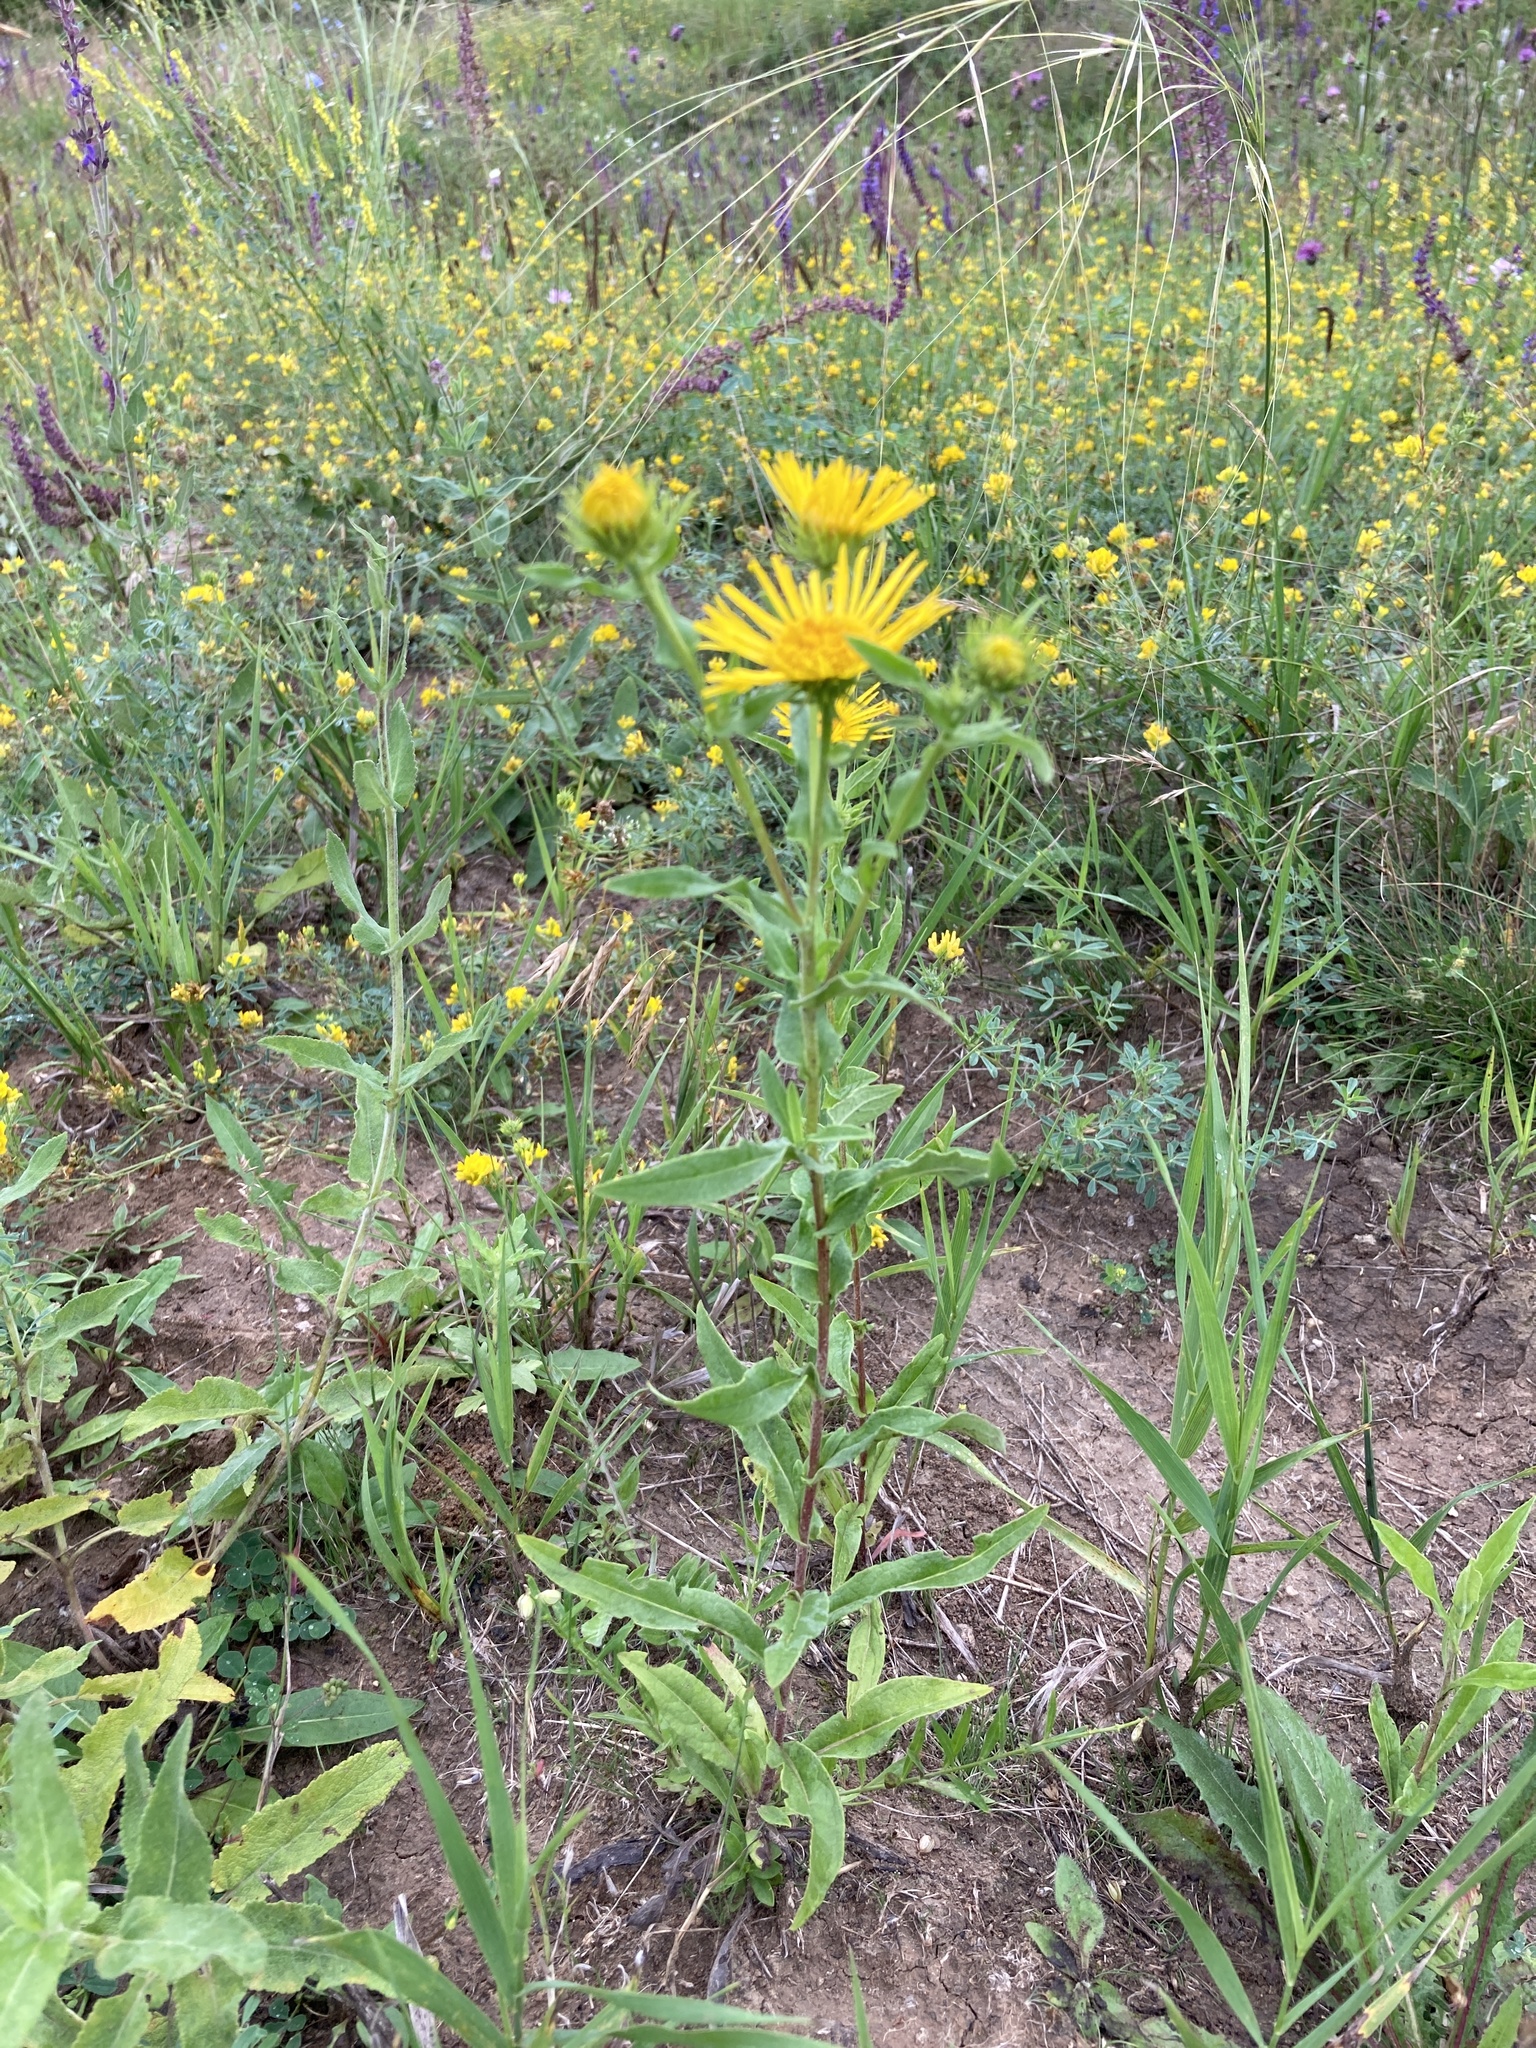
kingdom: Plantae
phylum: Tracheophyta
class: Magnoliopsida
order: Asterales
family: Asteraceae
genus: Pentanema
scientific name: Pentanema britannicum
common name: British elecampane
